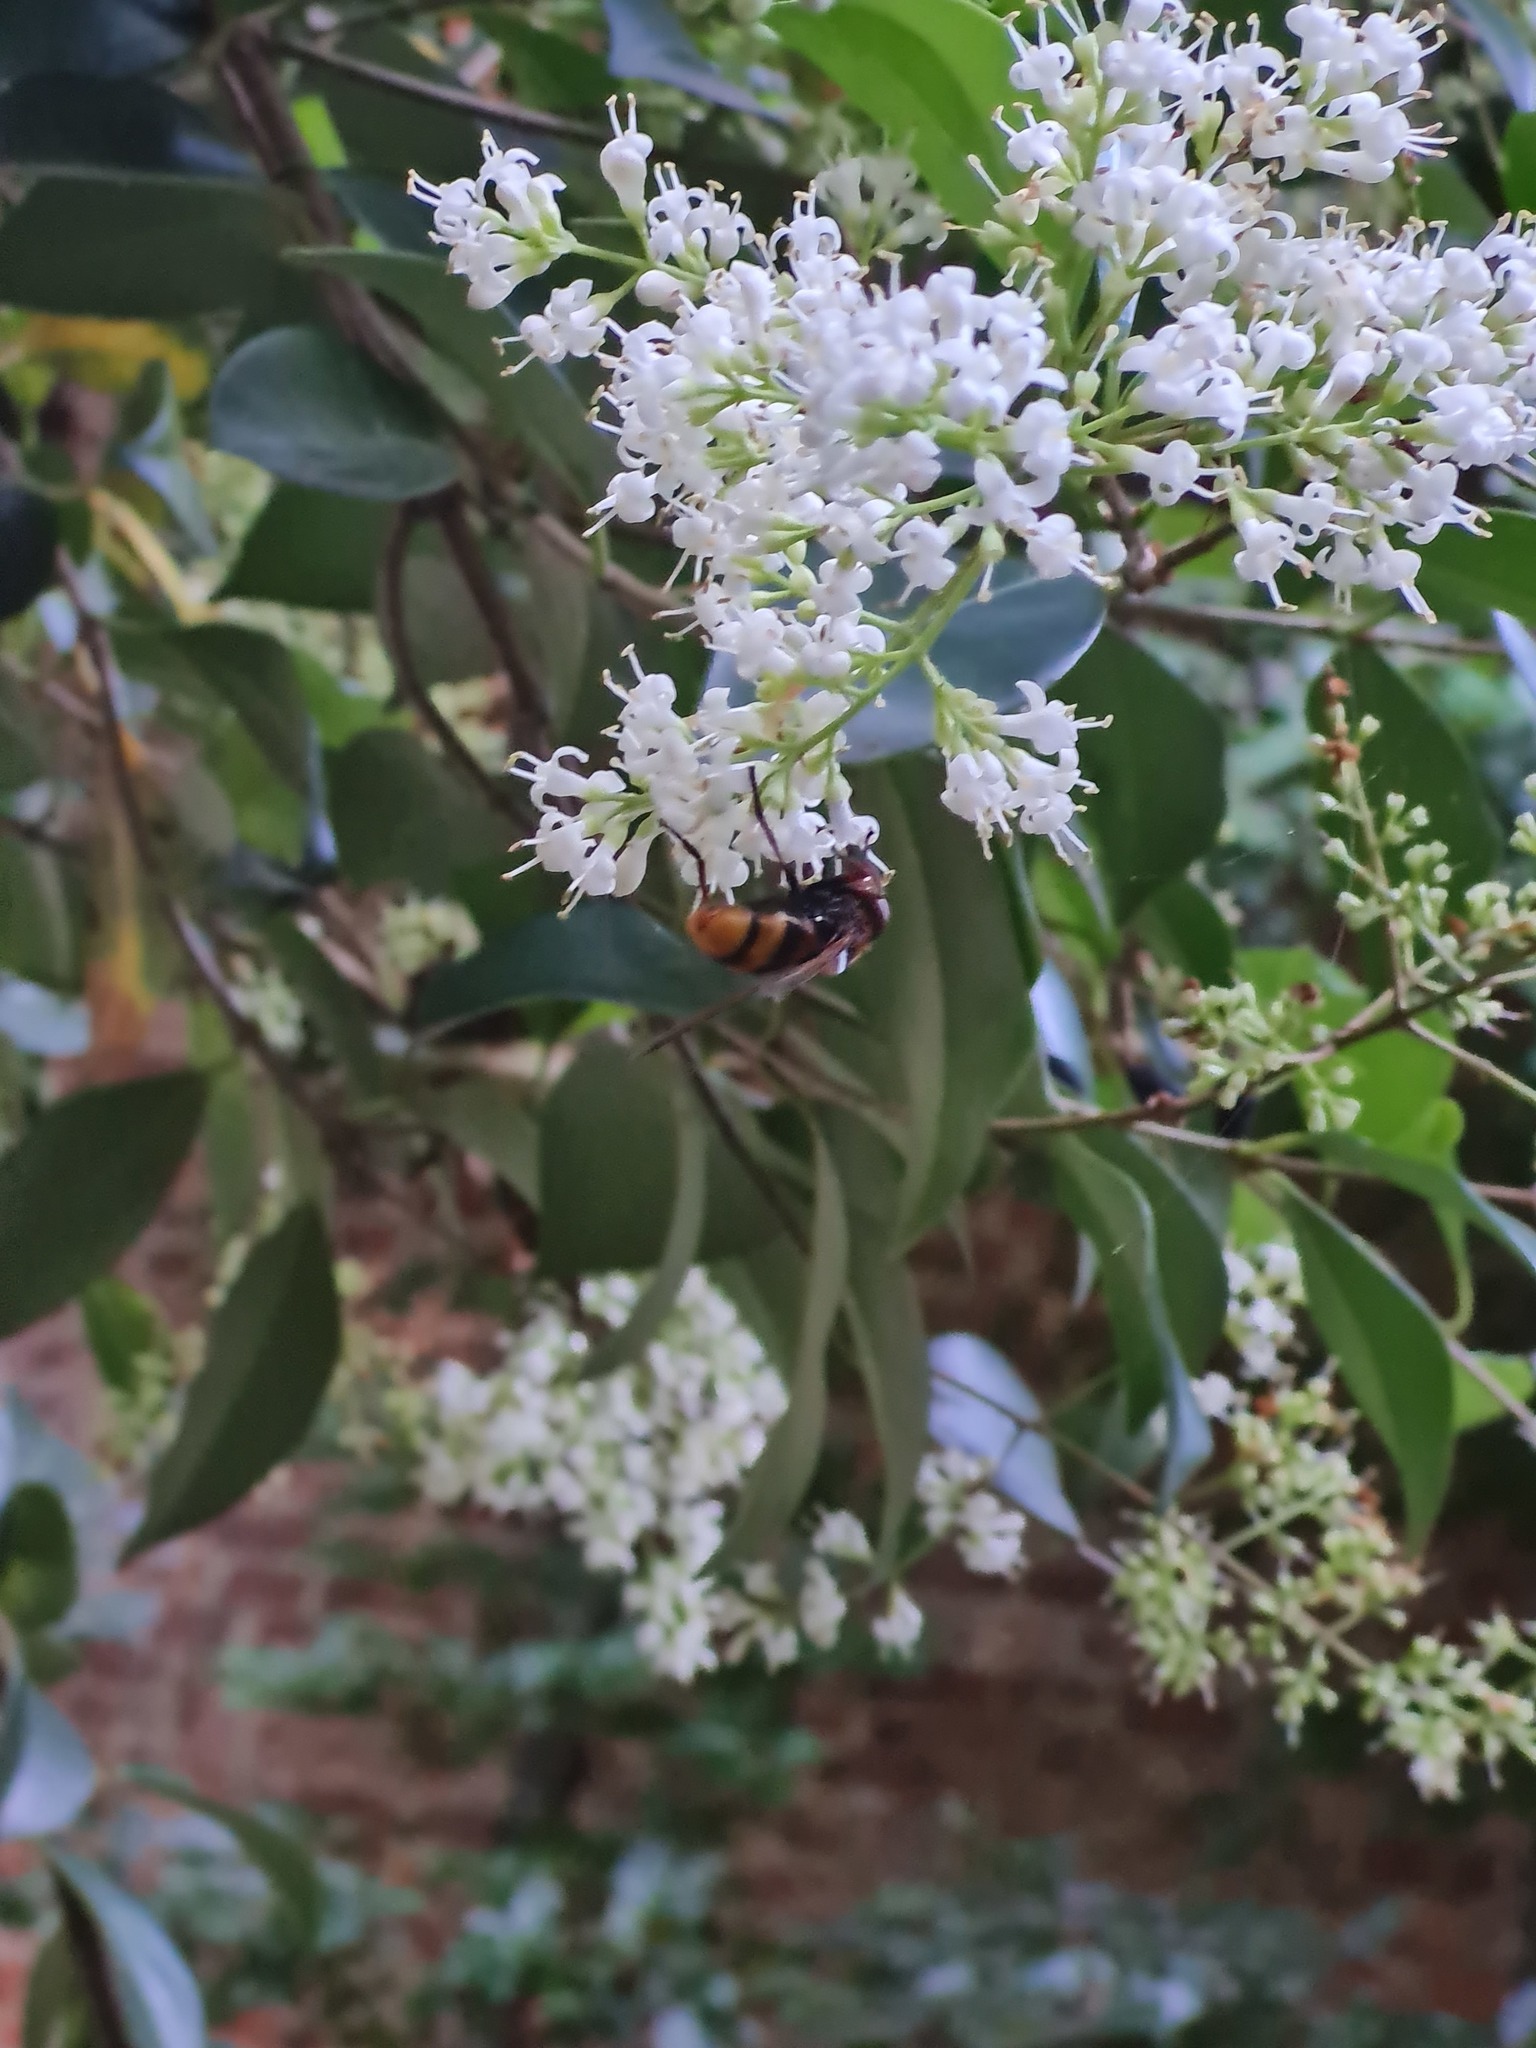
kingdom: Animalia
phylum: Arthropoda
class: Insecta
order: Diptera
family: Syrphidae
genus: Volucella
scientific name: Volucella zonaria
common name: Hornet hoverfly
